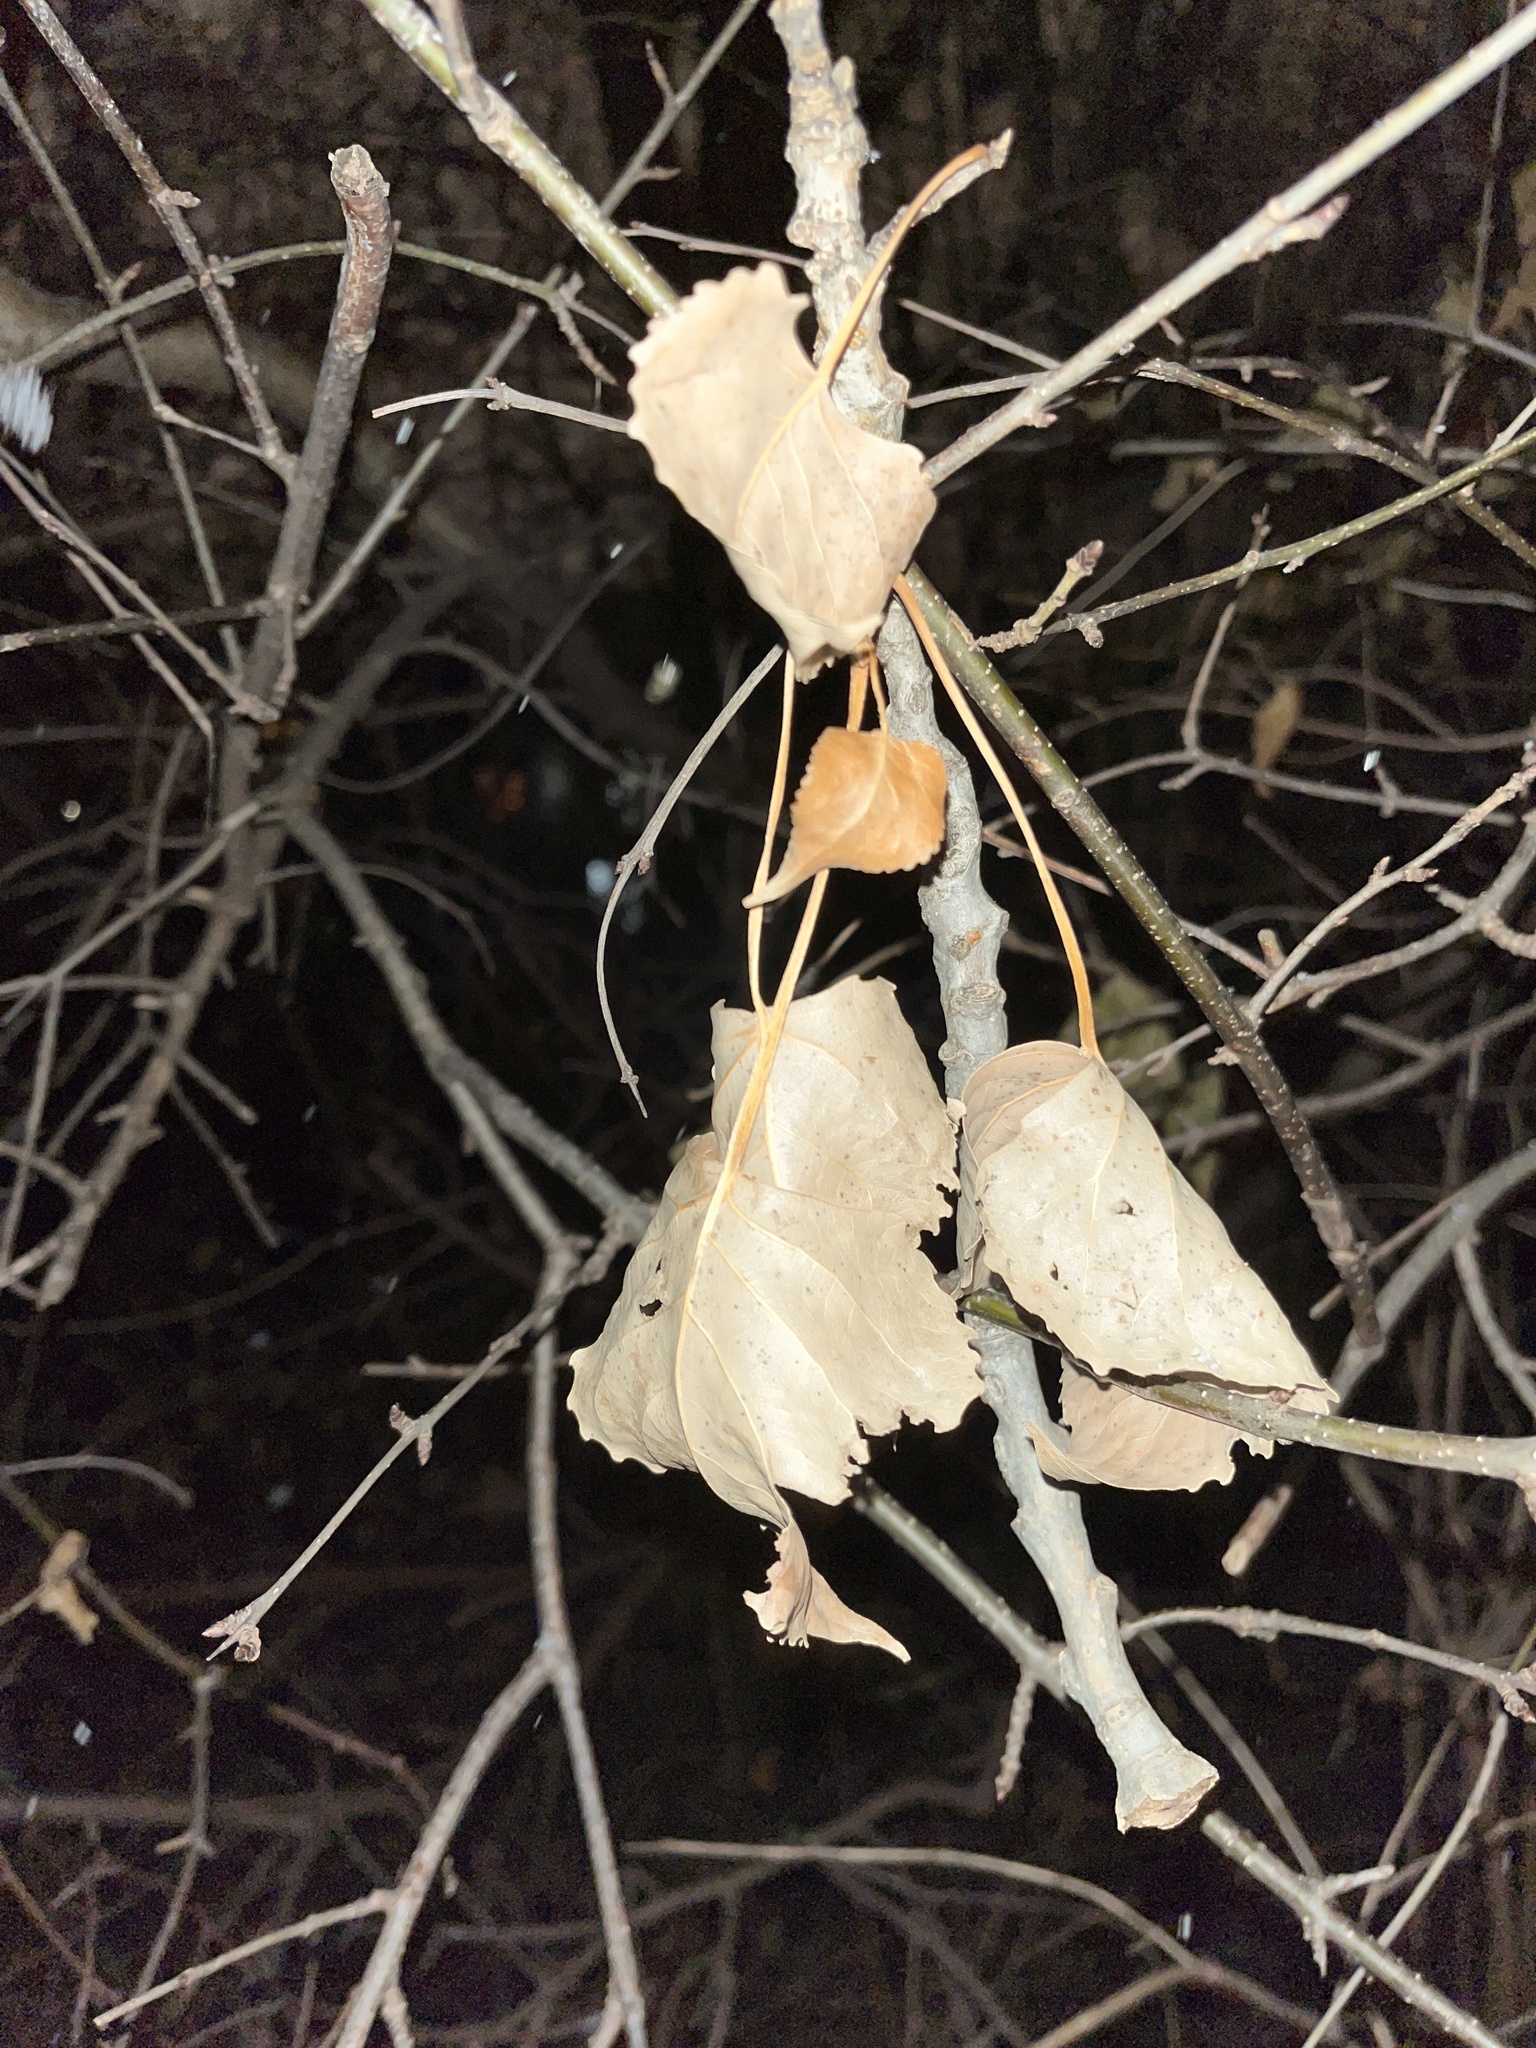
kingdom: Plantae
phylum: Tracheophyta
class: Magnoliopsida
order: Malpighiales
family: Salicaceae
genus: Populus
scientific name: Populus deltoides
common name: Eastern cottonwood
